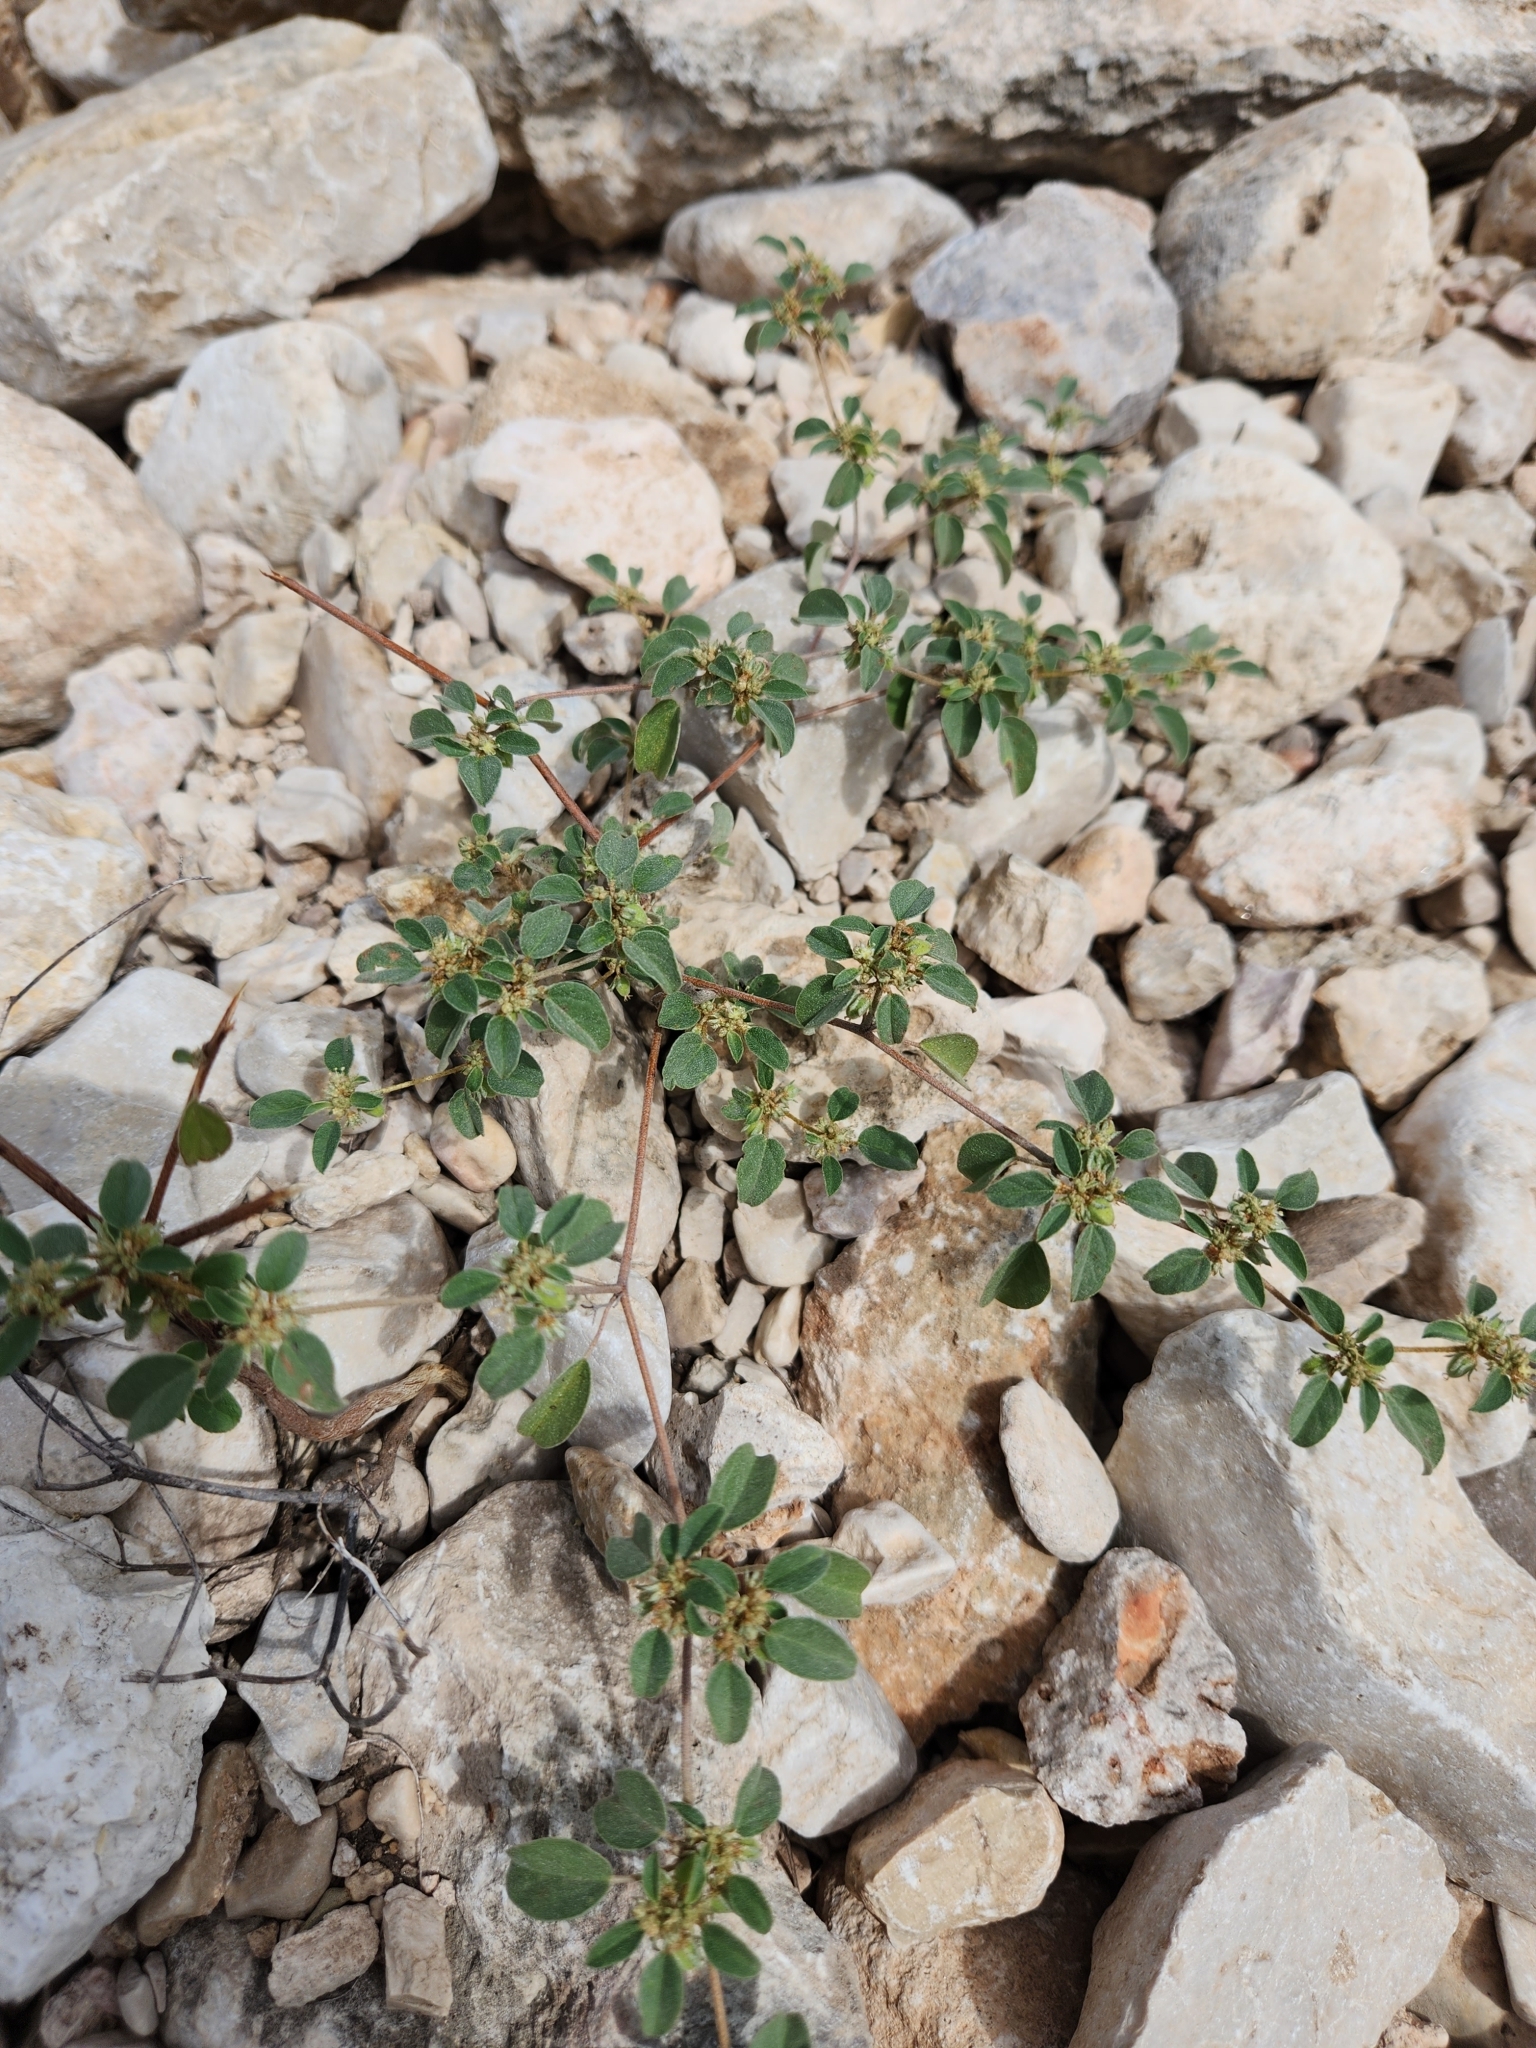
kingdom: Plantae
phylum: Tracheophyta
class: Magnoliopsida
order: Malpighiales
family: Euphorbiaceae
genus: Croton
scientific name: Croton monanthogynus
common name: One-seed croton
